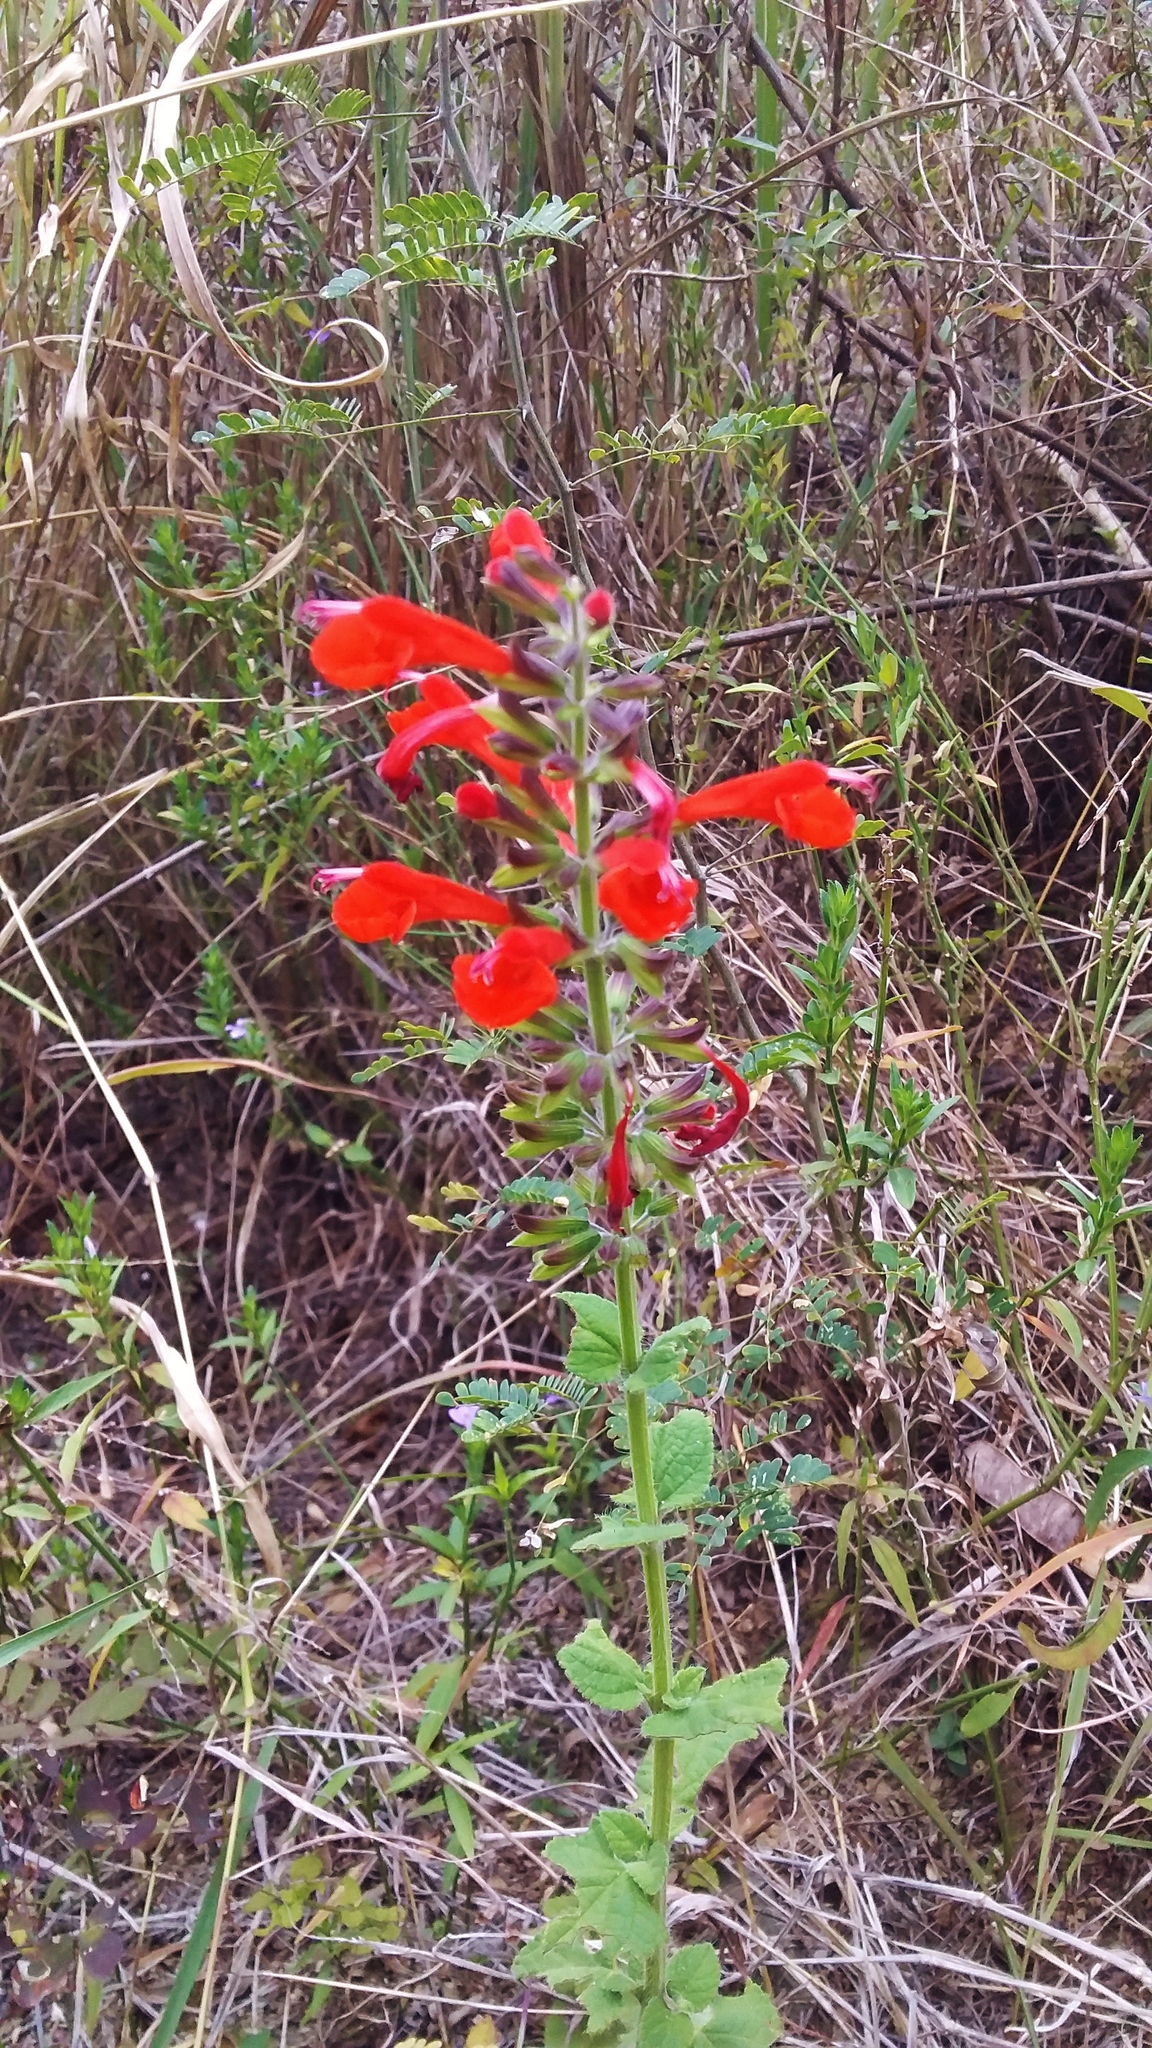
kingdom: Plantae
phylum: Tracheophyta
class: Magnoliopsida
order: Lamiales
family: Lamiaceae
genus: Salvia
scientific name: Salvia coccinea
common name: Blood sage
